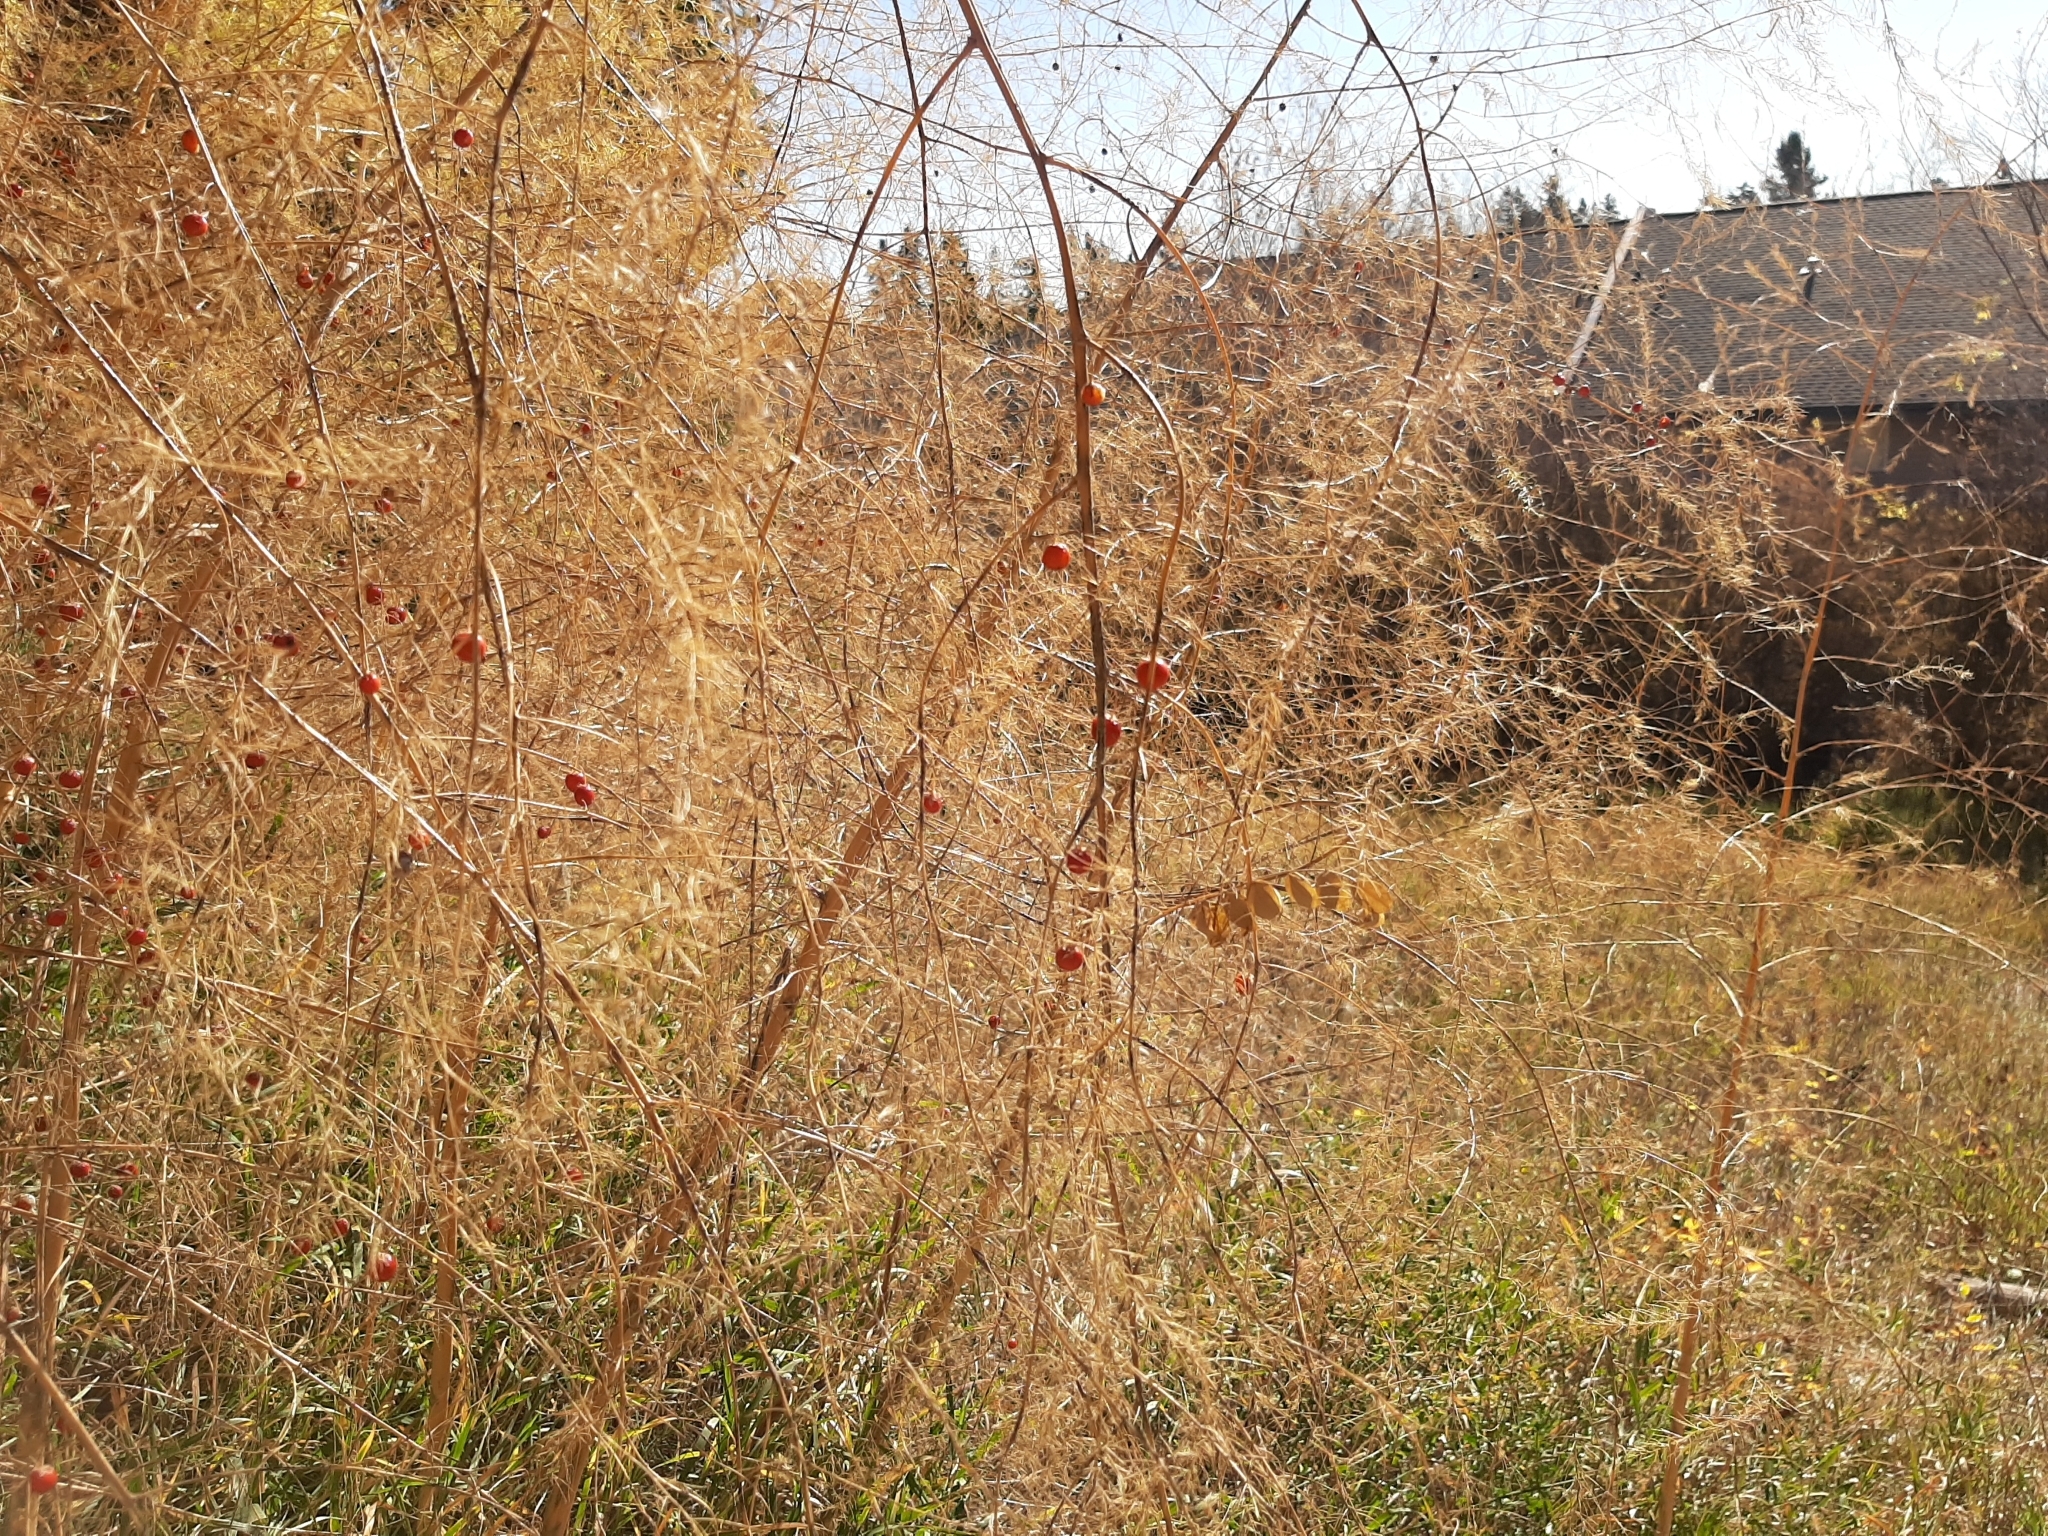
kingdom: Plantae
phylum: Tracheophyta
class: Liliopsida
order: Asparagales
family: Asparagaceae
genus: Asparagus
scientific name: Asparagus officinalis
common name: Garden asparagus
